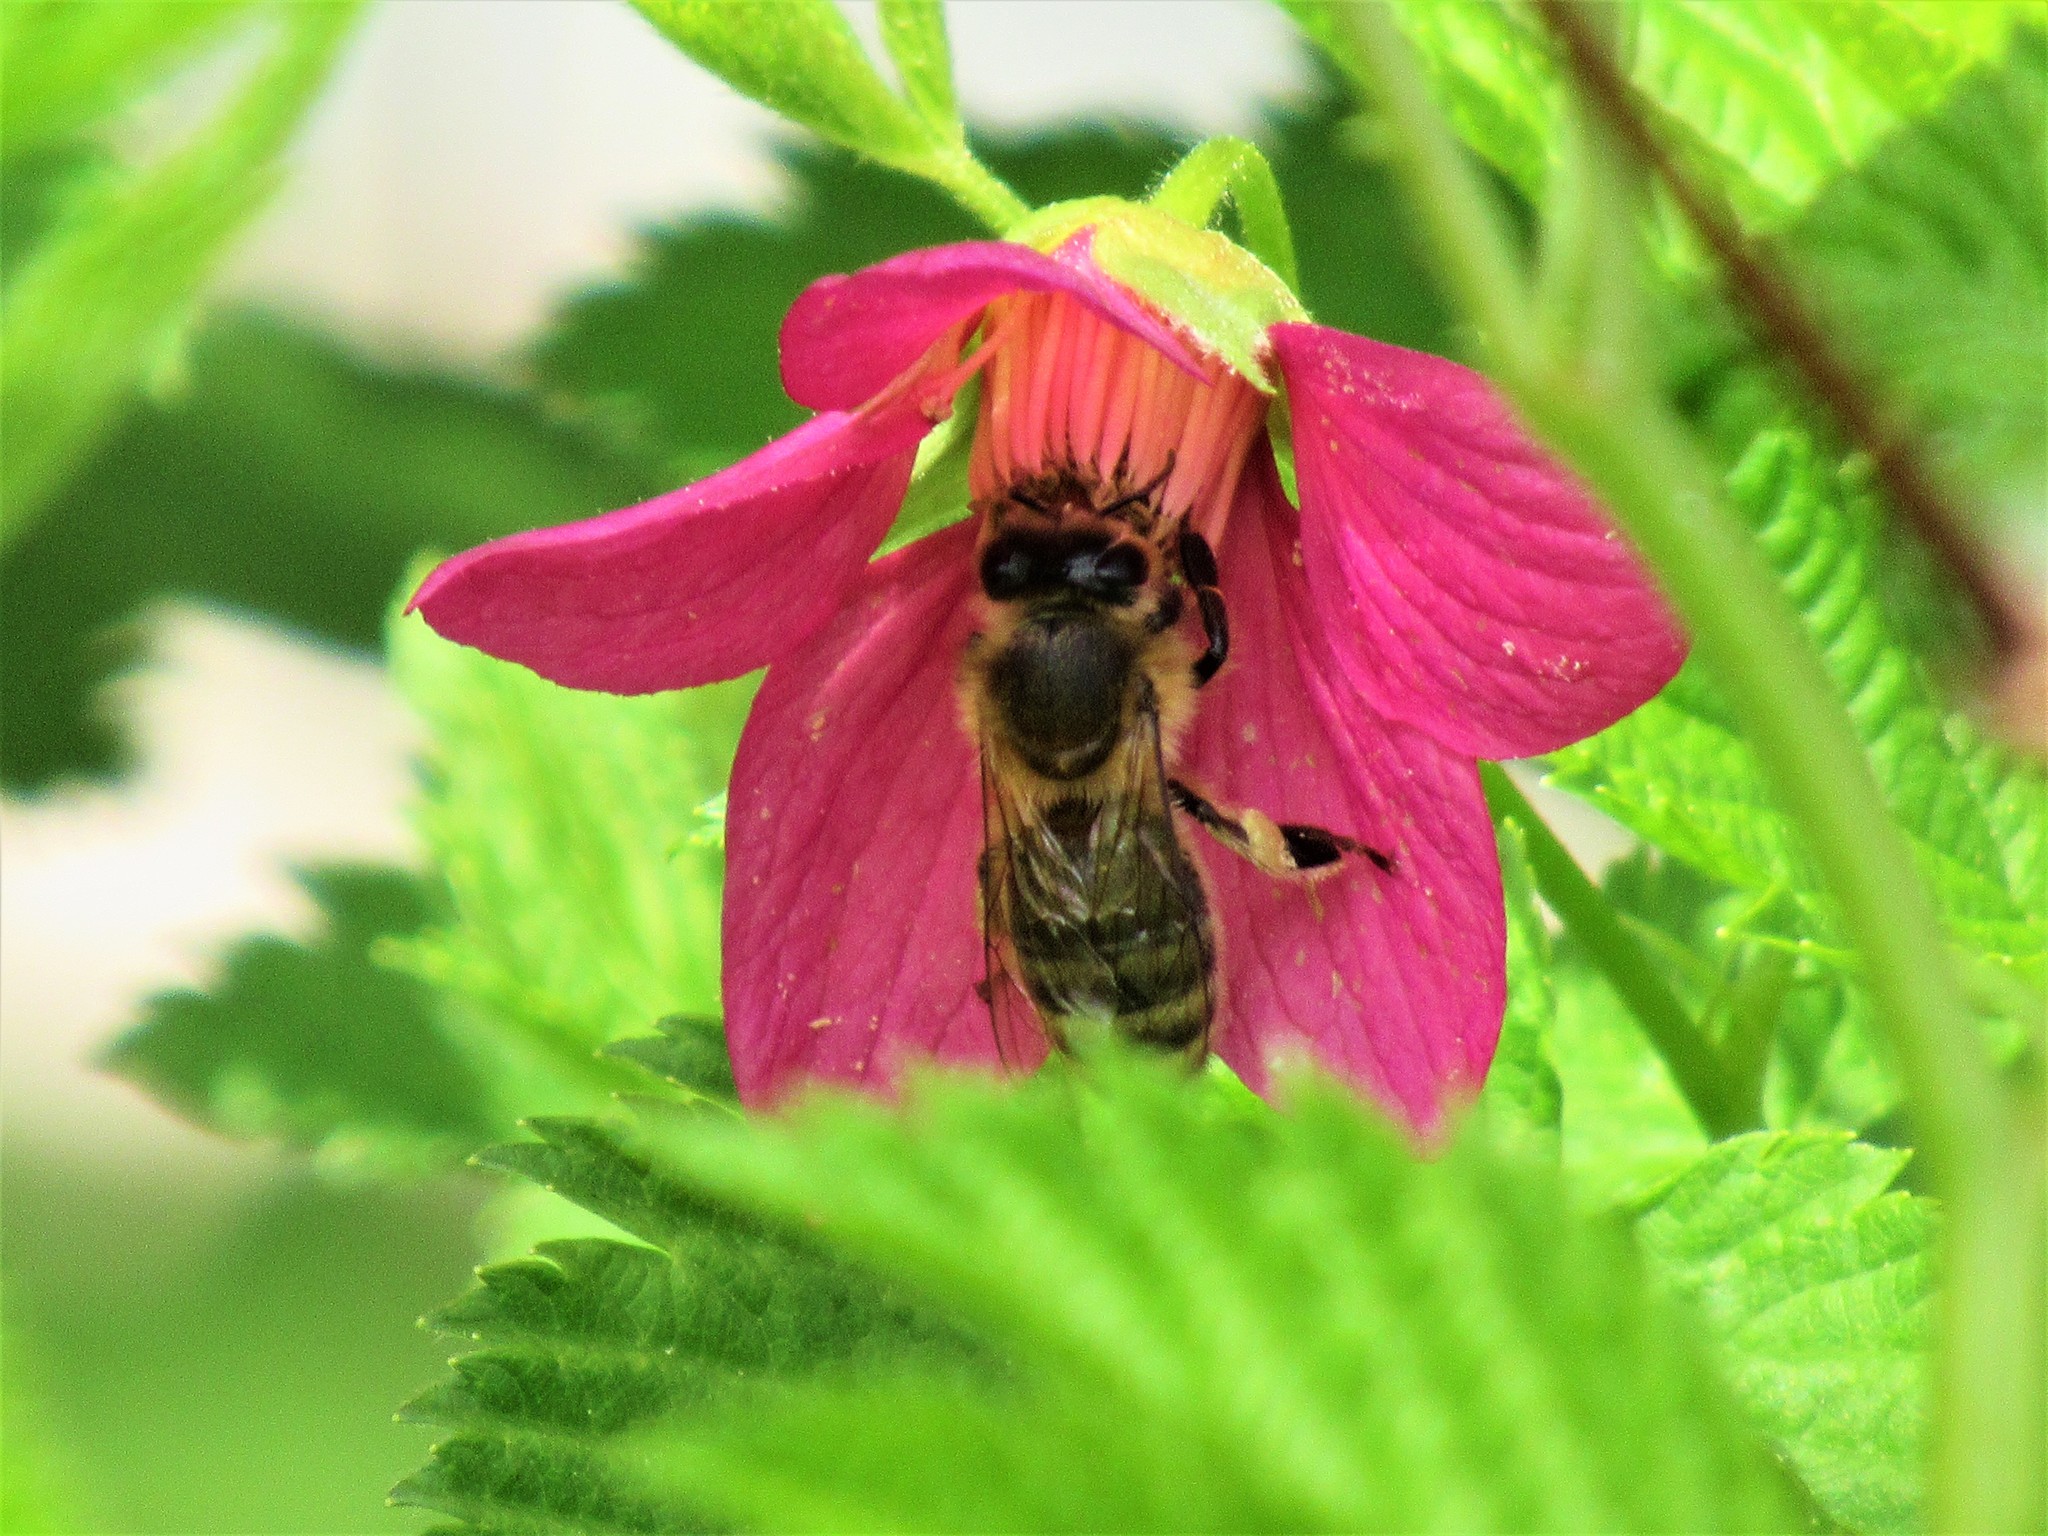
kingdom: Animalia
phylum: Arthropoda
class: Insecta
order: Hymenoptera
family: Apidae
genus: Apis
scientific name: Apis mellifera
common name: Honey bee
